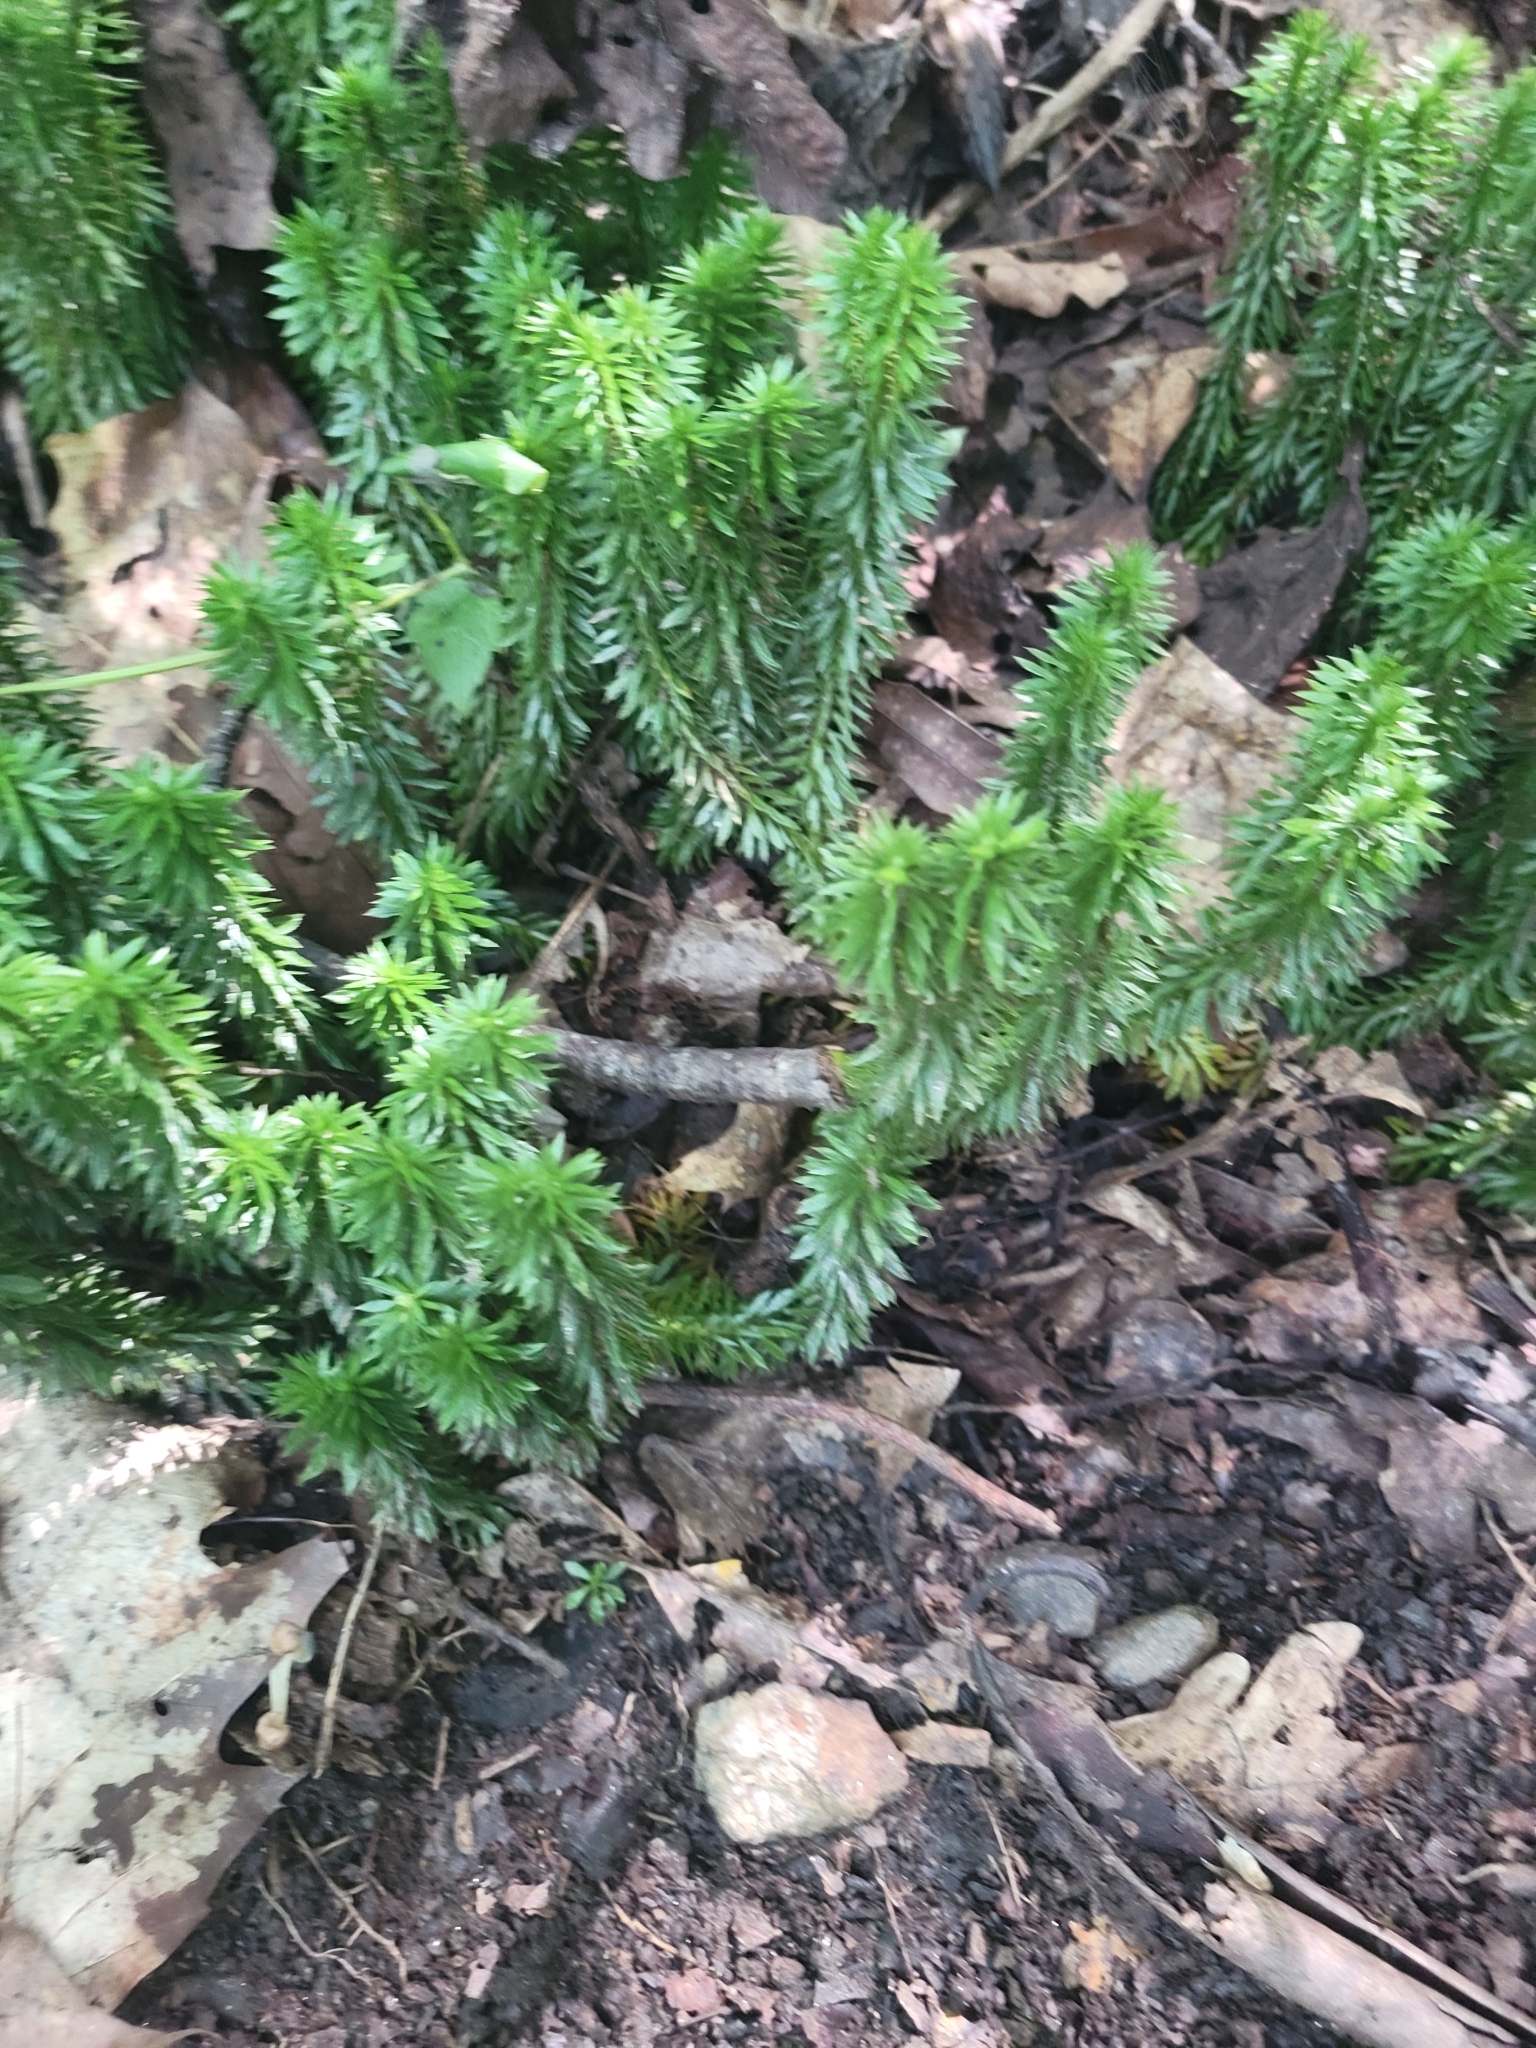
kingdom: Plantae
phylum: Tracheophyta
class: Lycopodiopsida
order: Lycopodiales
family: Lycopodiaceae
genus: Huperzia
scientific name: Huperzia lucidula
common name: Shining clubmoss
